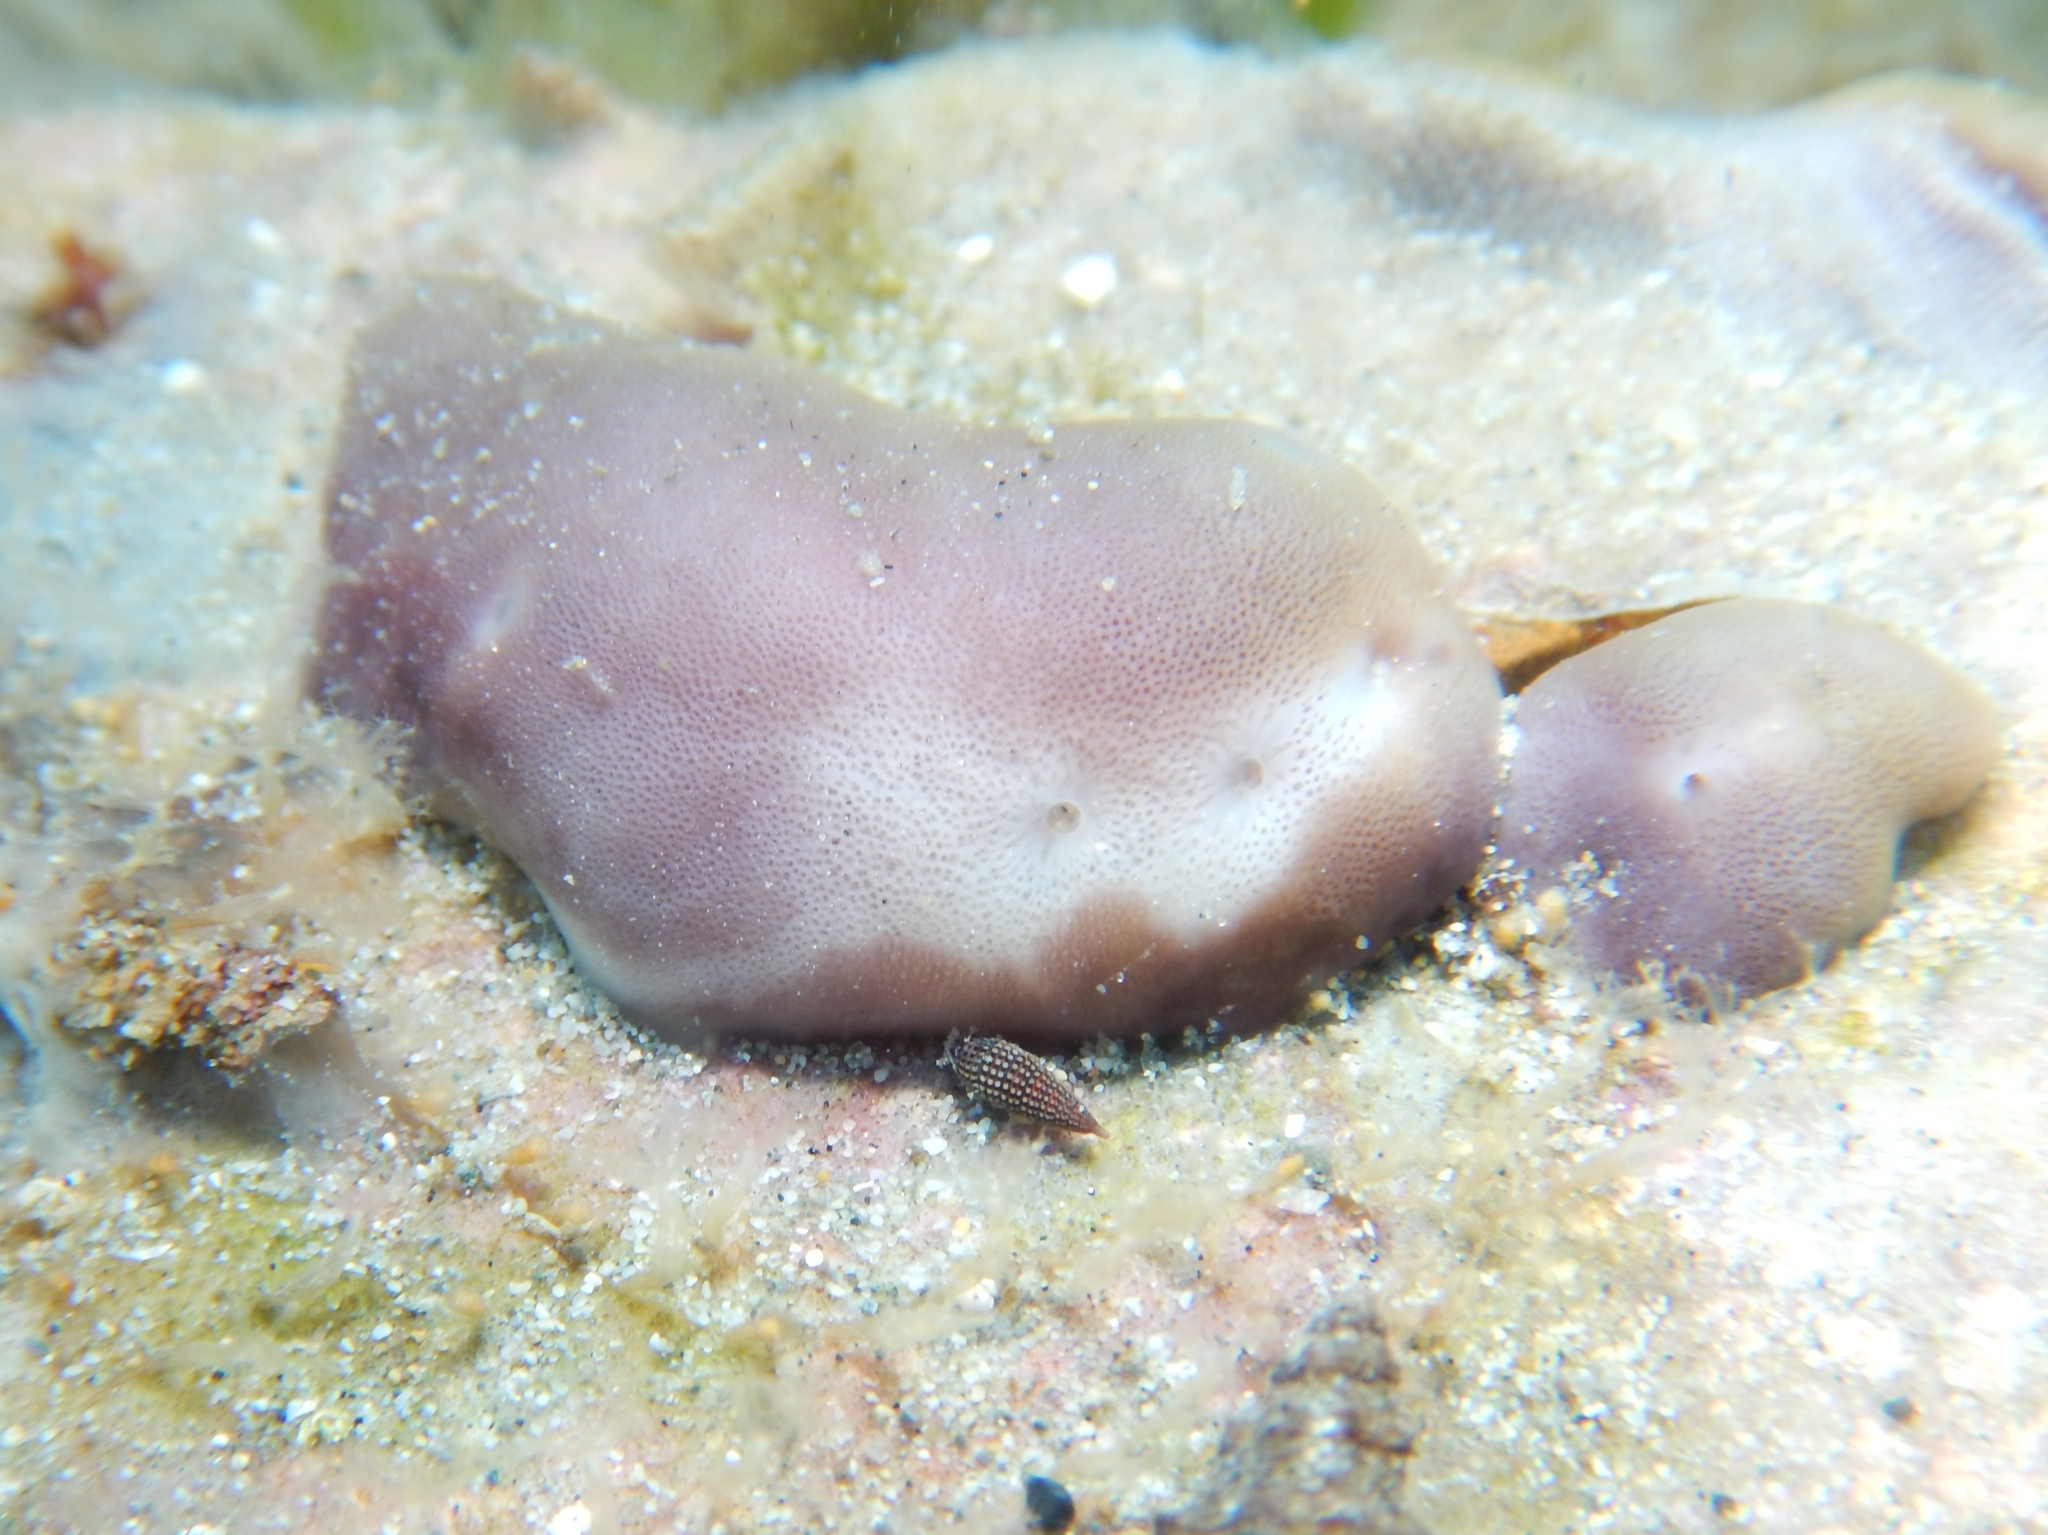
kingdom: Animalia
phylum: Porifera
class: Demospongiae
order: Chondrillida
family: Chondrillidae
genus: Chondrilla
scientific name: Chondrilla nucula
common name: Chicken liver sponge
